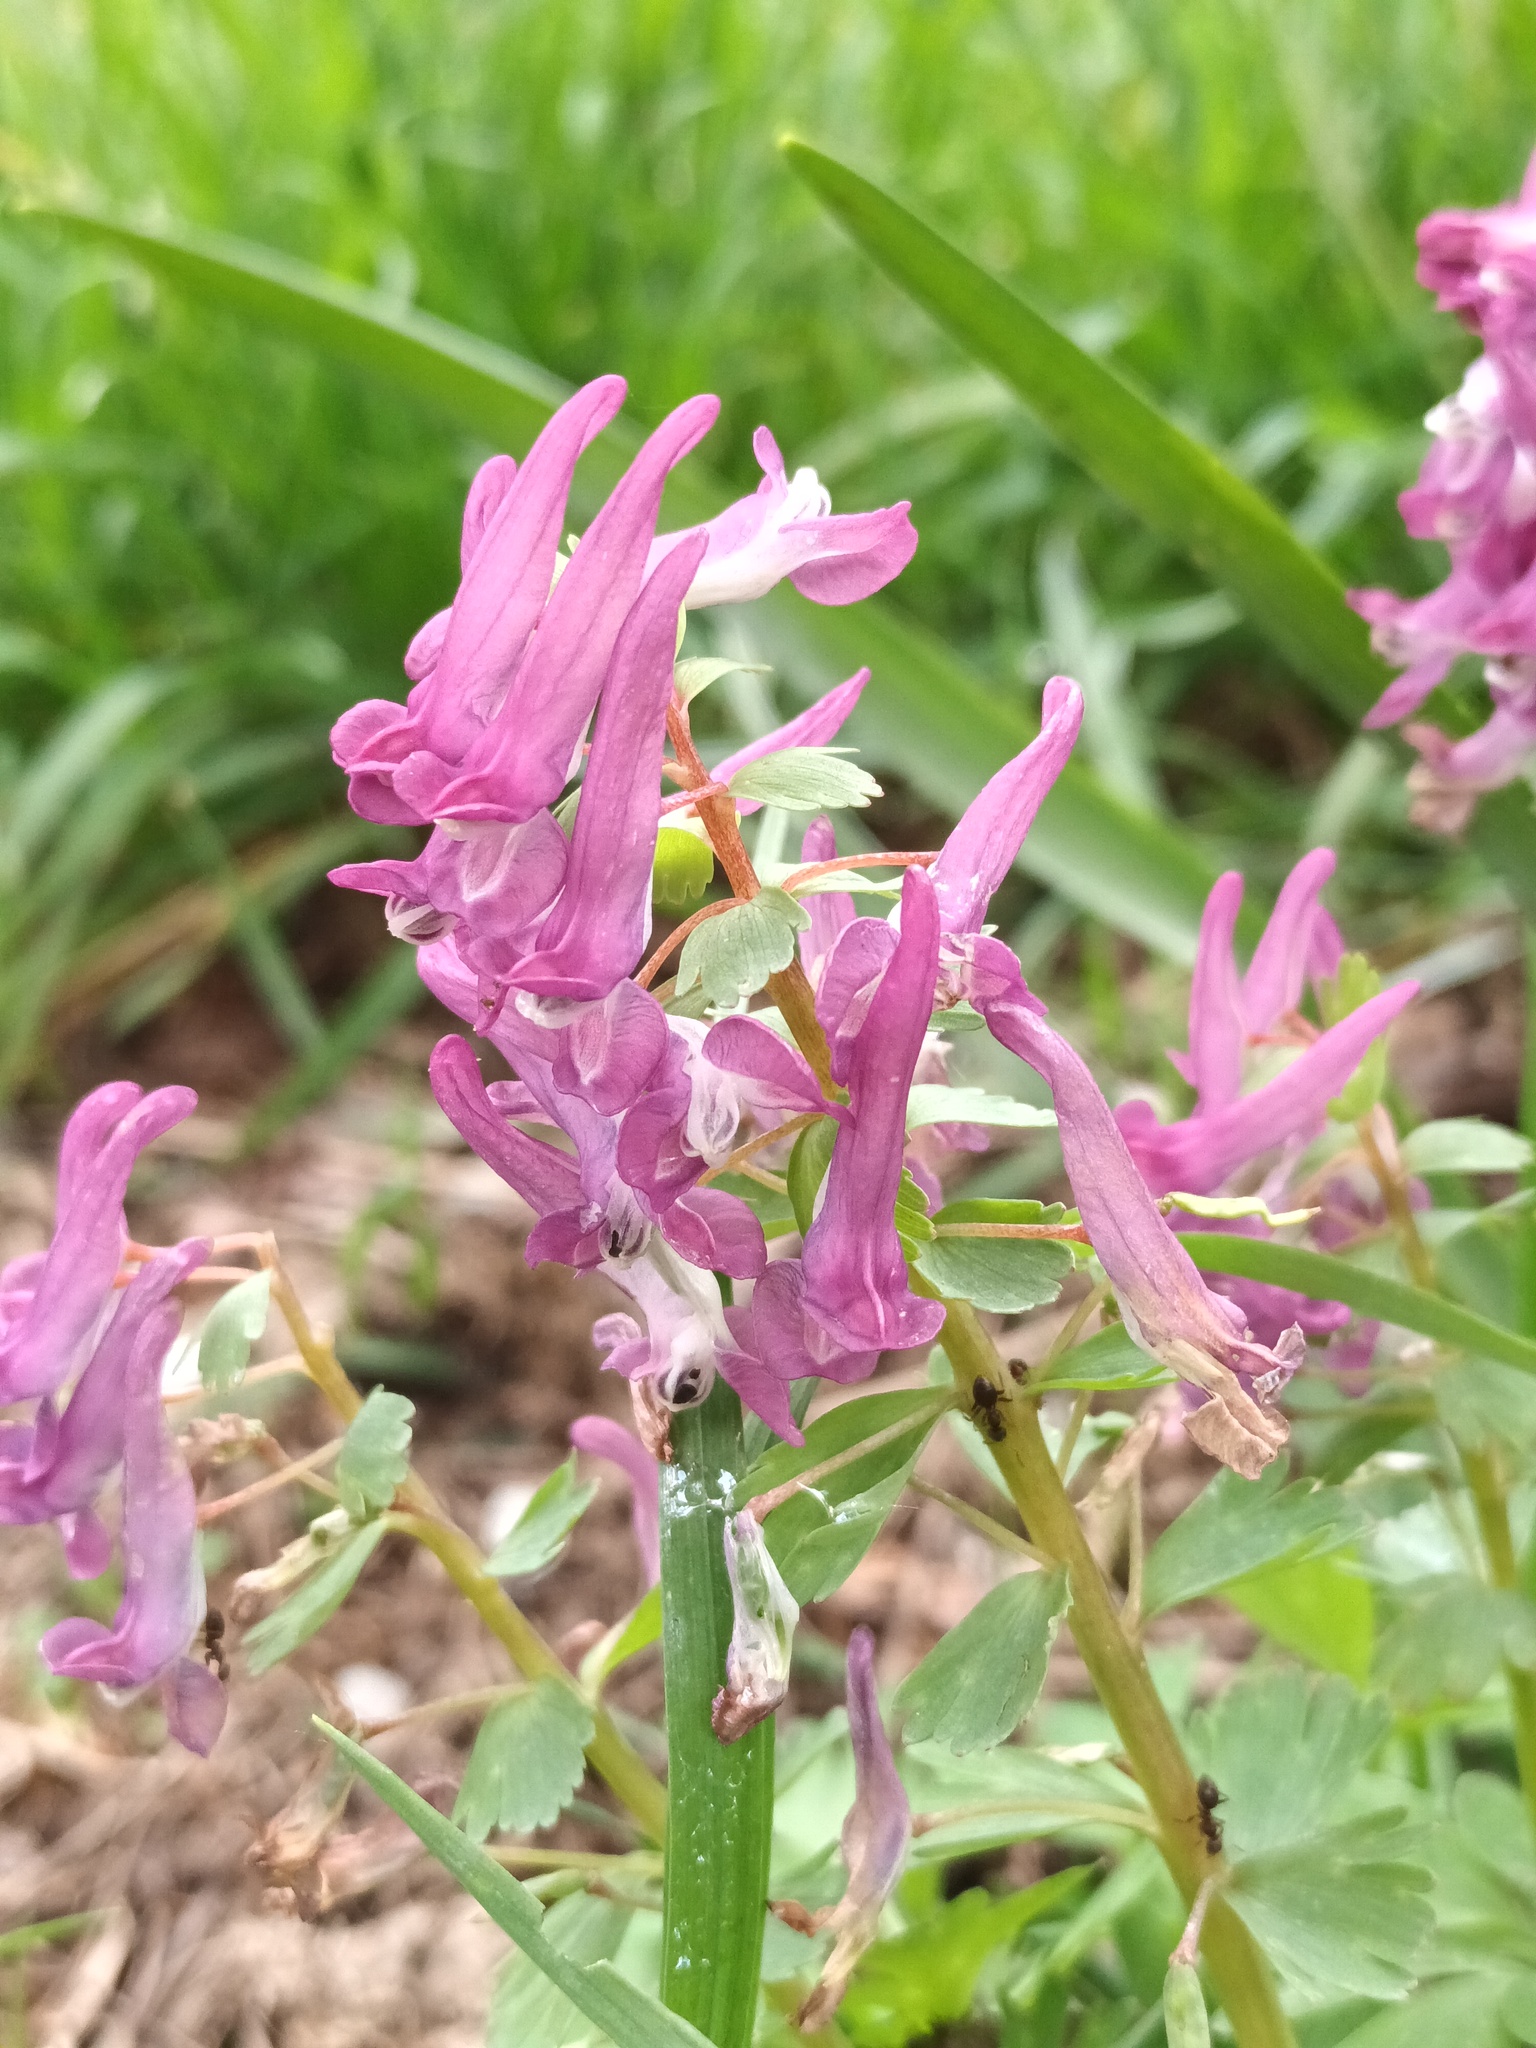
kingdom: Plantae
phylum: Tracheophyta
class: Magnoliopsida
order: Ranunculales
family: Papaveraceae
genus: Corydalis
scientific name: Corydalis solida
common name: Bird-in-a-bush
